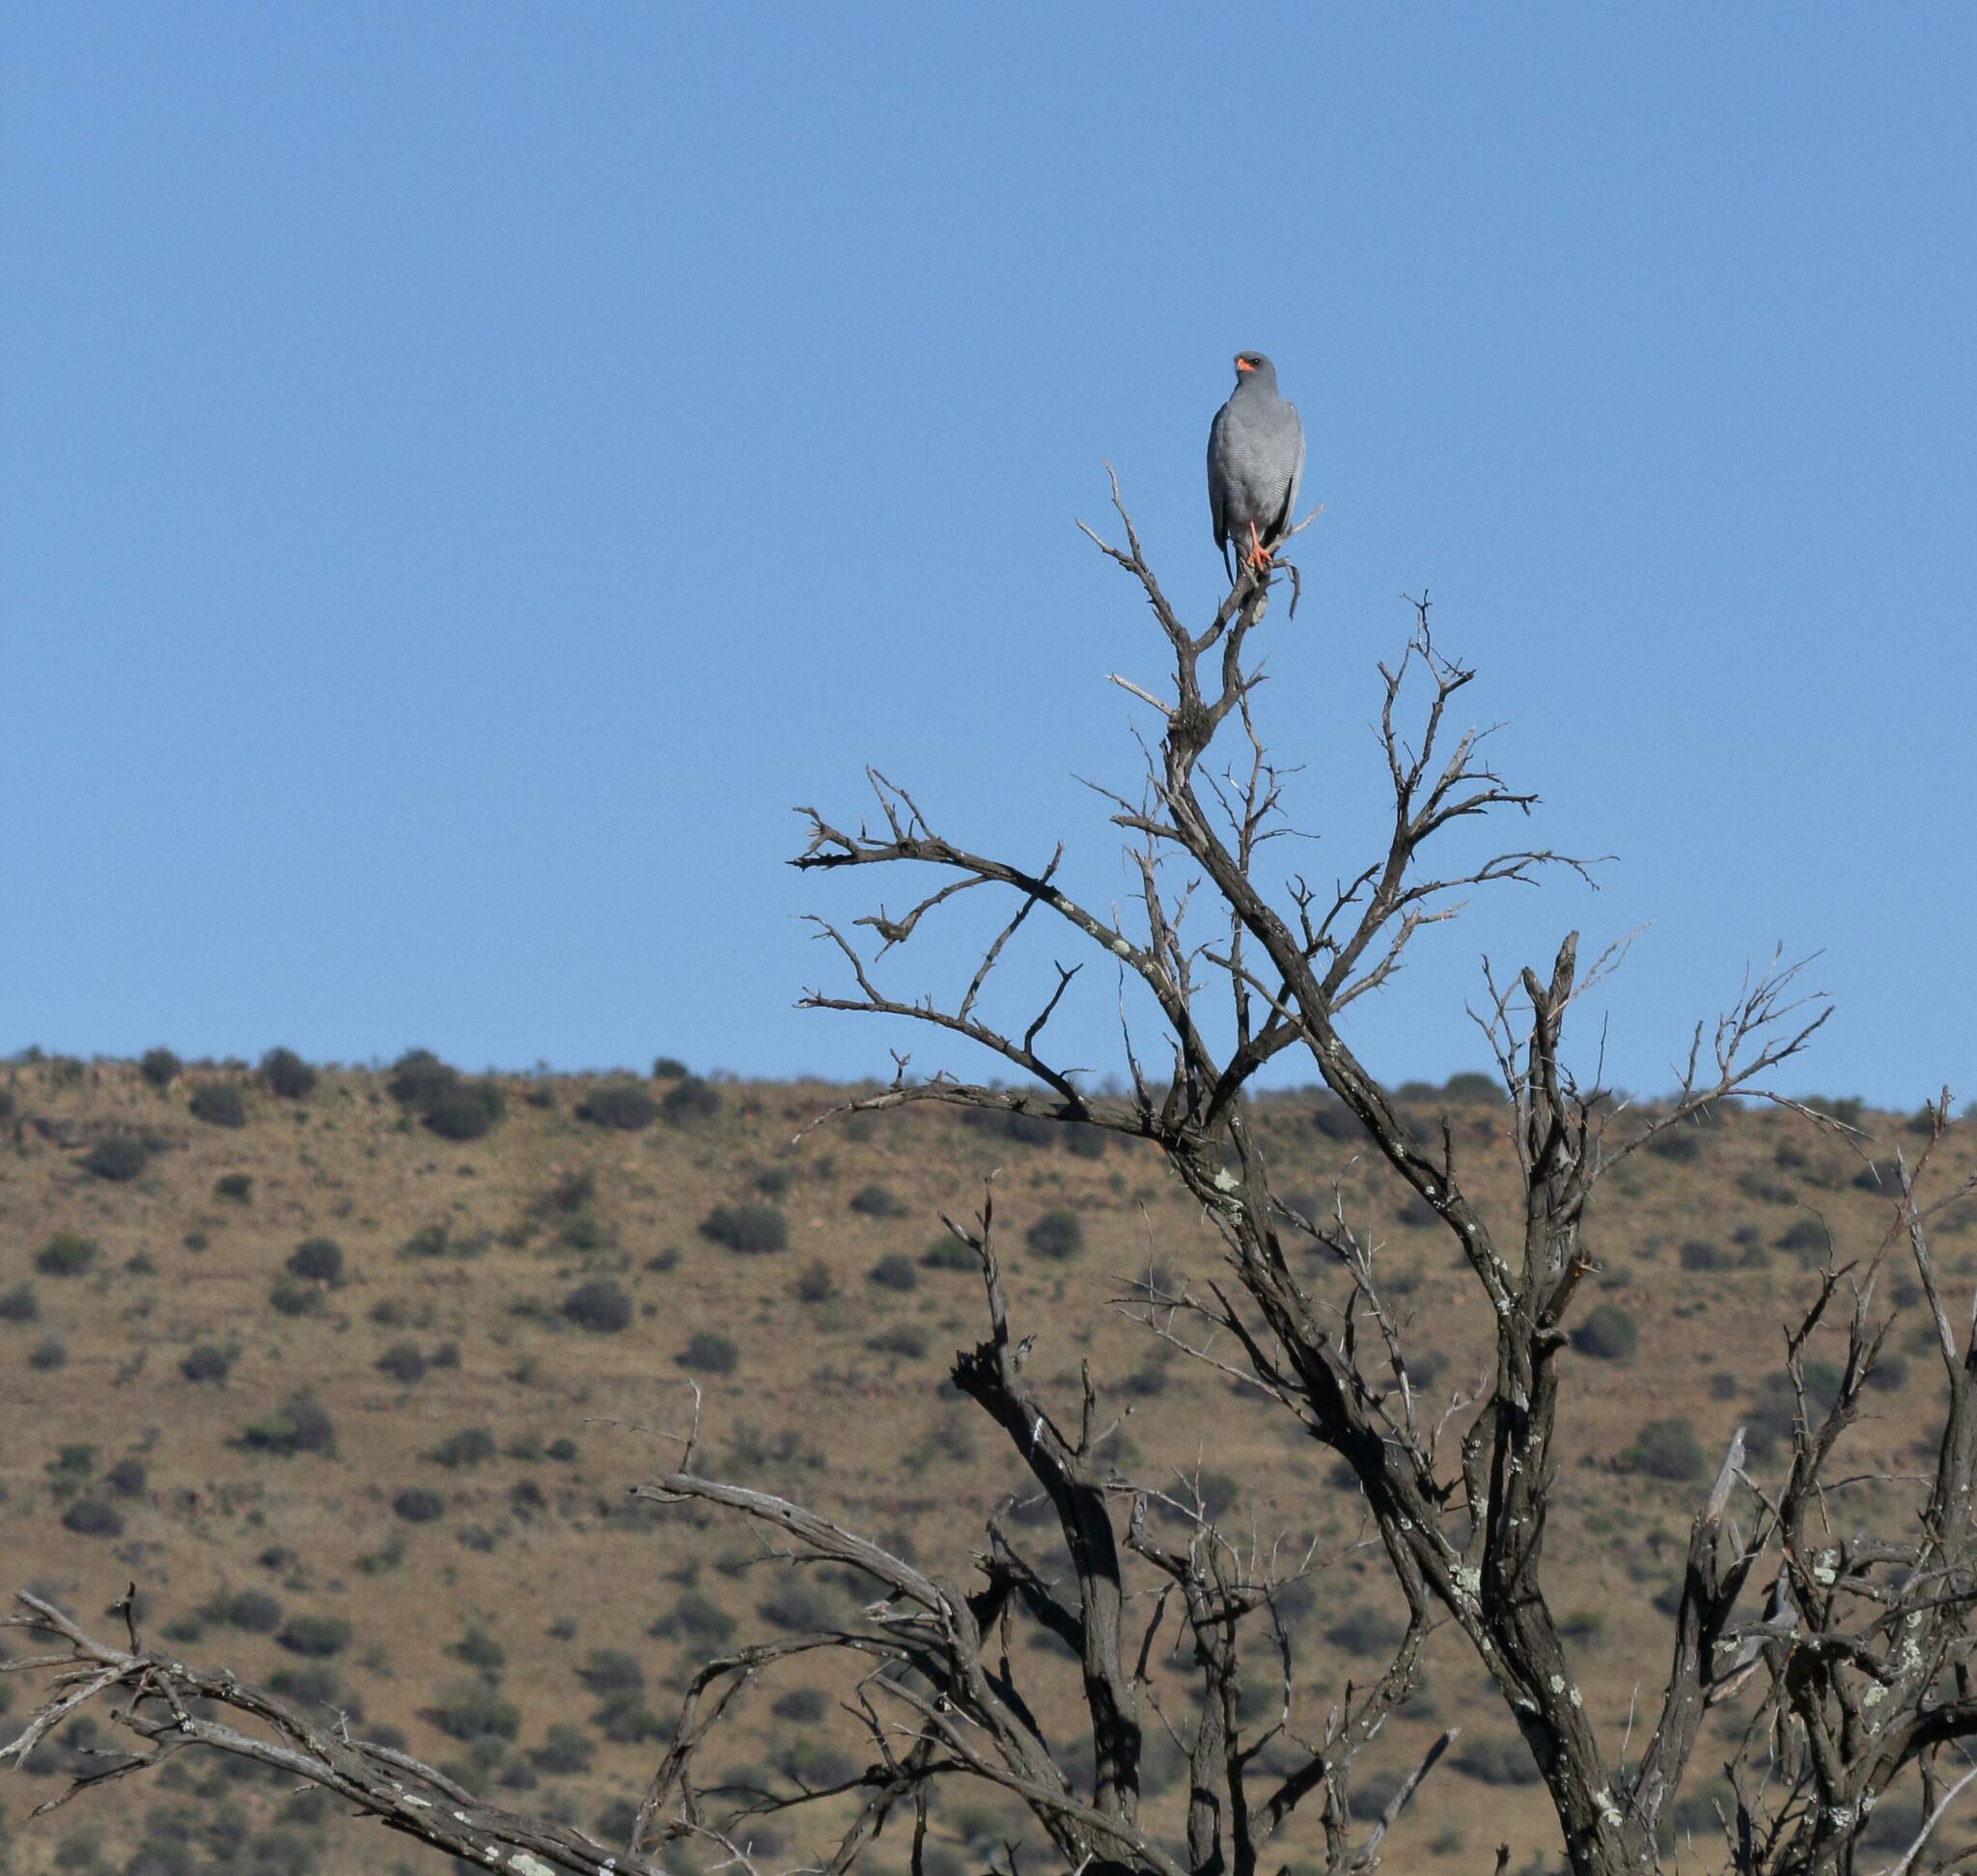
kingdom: Animalia
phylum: Chordata
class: Aves
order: Accipitriformes
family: Accipitridae
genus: Melierax
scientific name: Melierax canorus
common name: Pale chanting-goshawk
